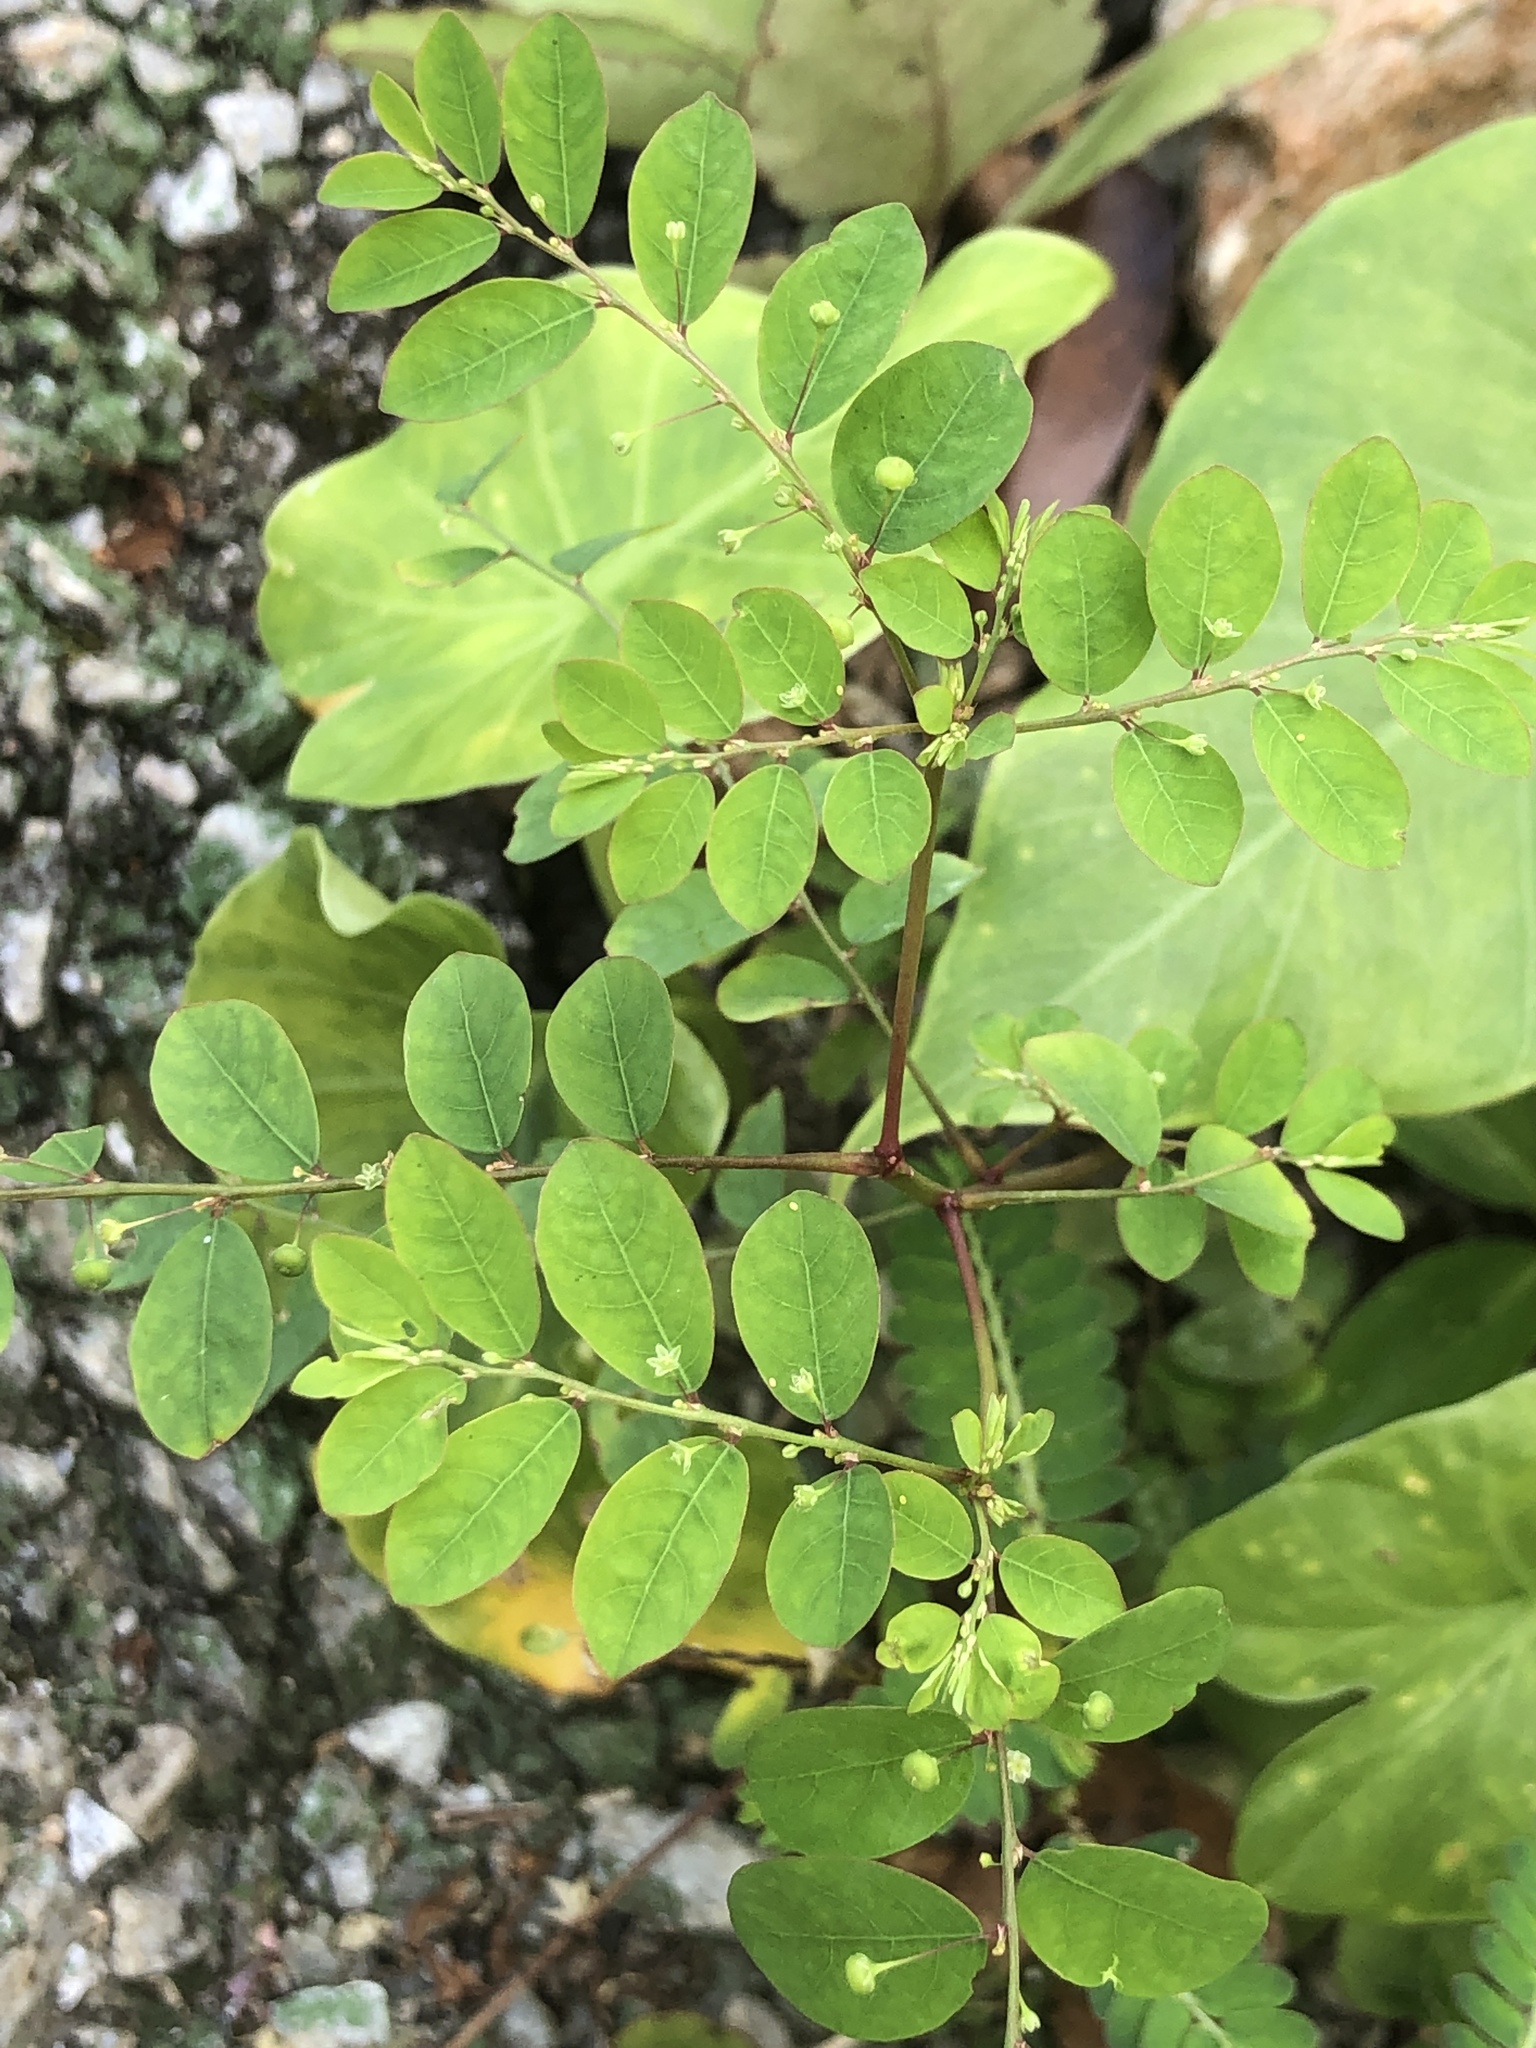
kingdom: Plantae
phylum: Tracheophyta
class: Magnoliopsida
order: Malpighiales
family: Phyllanthaceae
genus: Phyllanthus
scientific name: Phyllanthus tenellus
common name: Mascarene island leaf-flower
